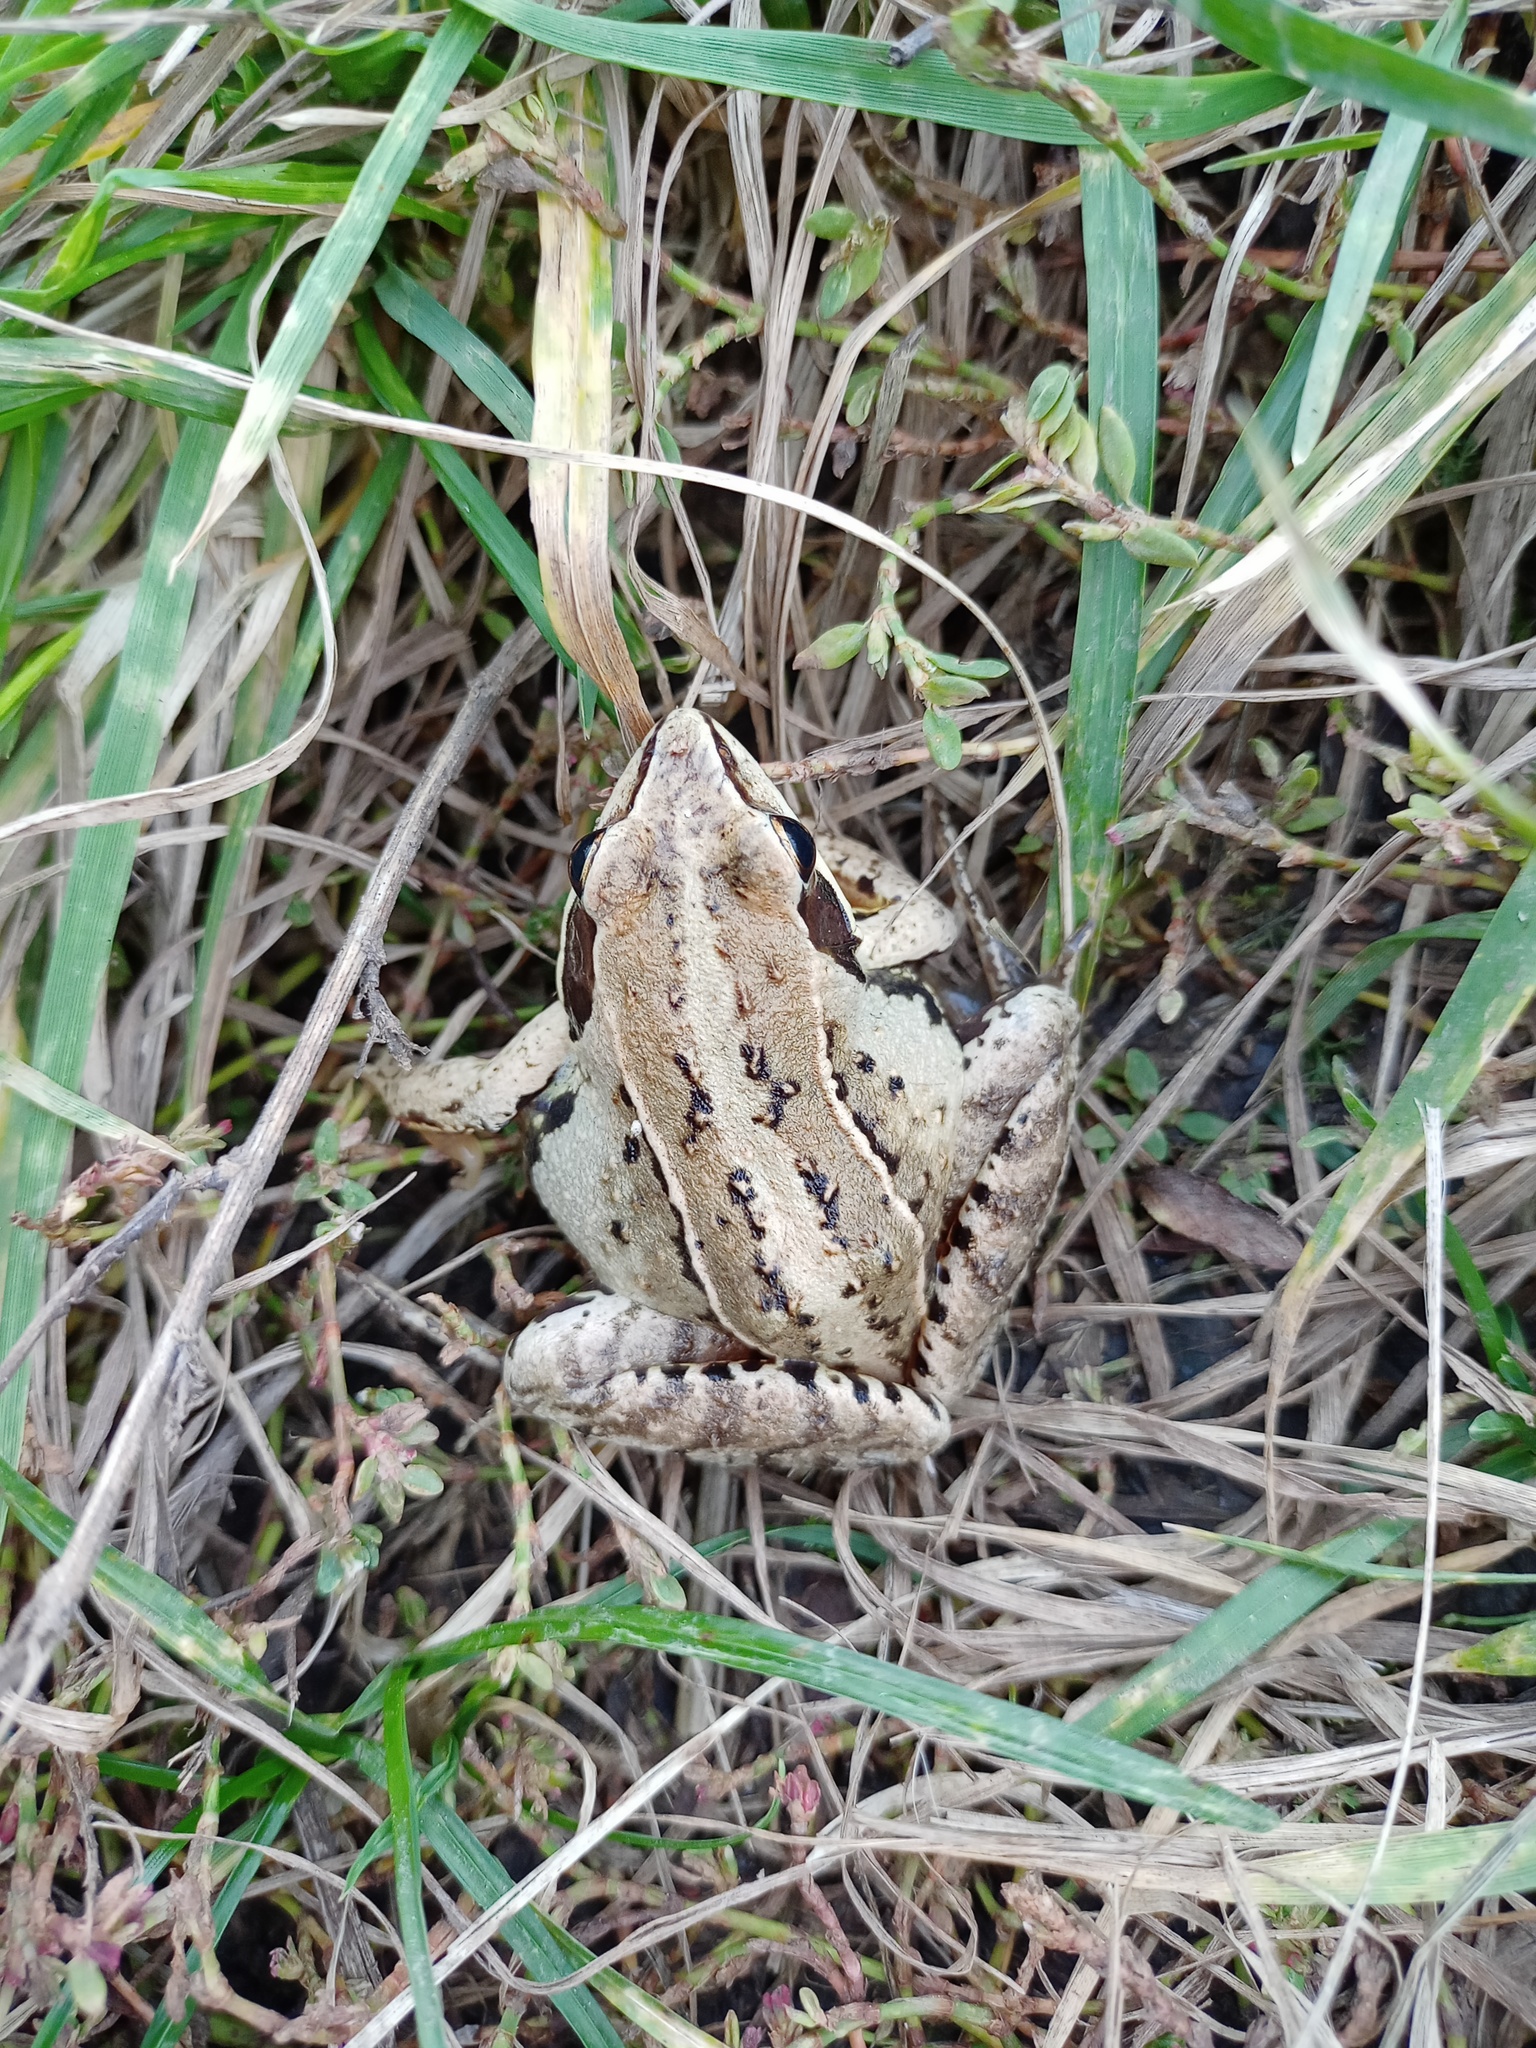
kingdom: Animalia
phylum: Chordata
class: Amphibia
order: Anura
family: Ranidae
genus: Rana
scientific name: Rana arvalis
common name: Moor frog
